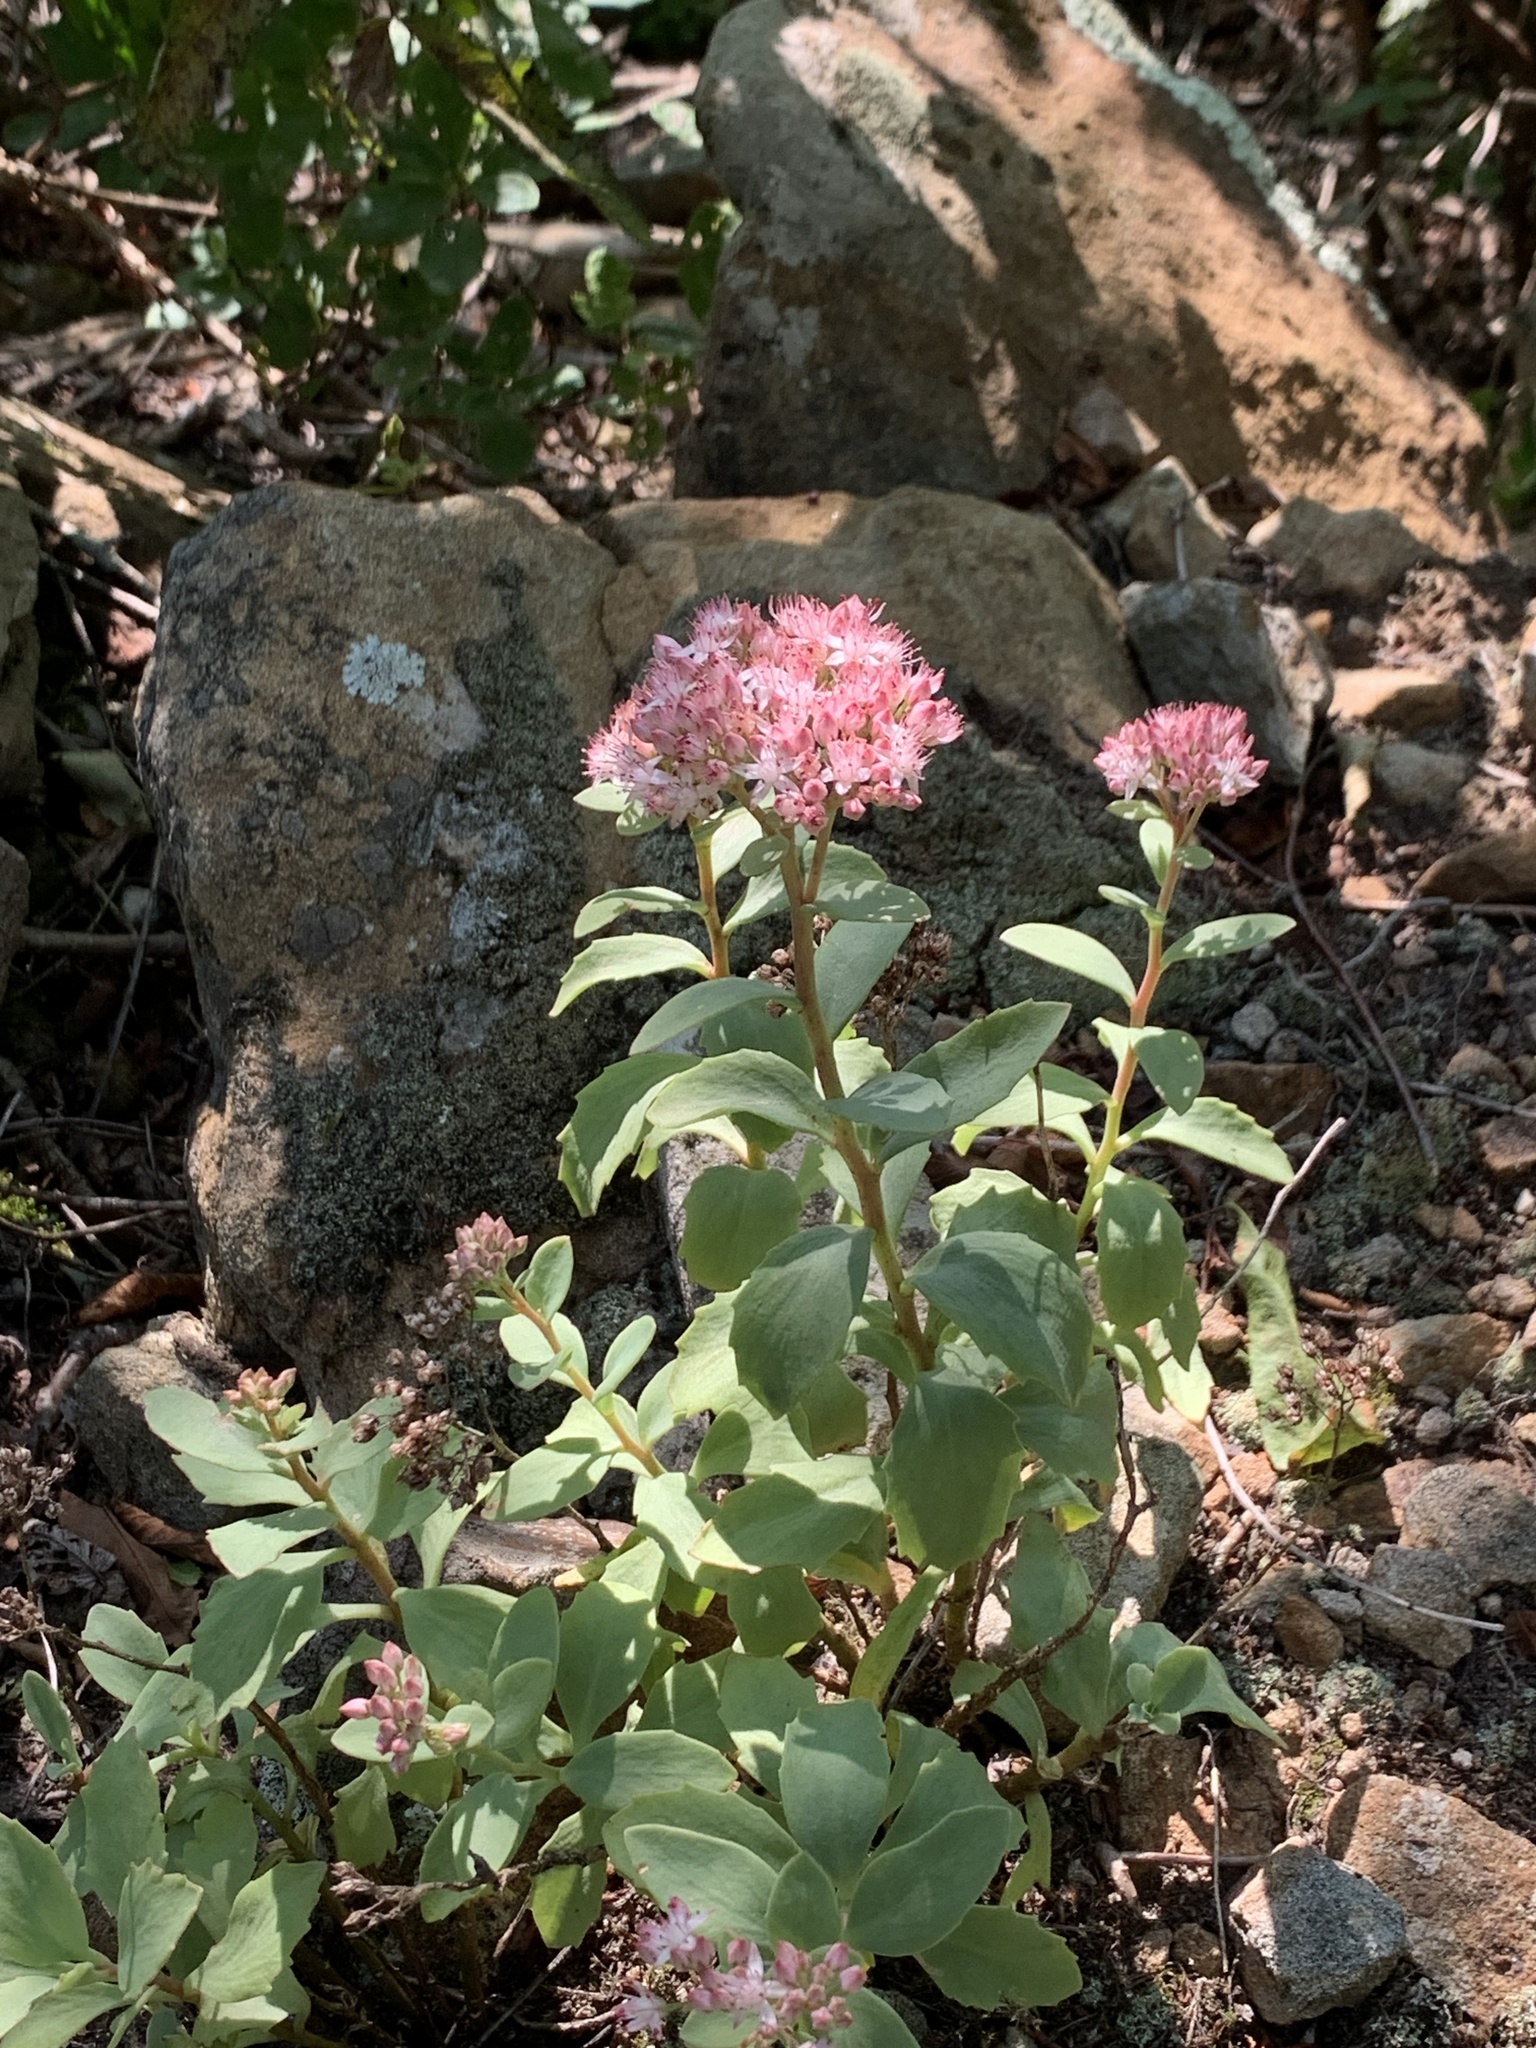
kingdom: Plantae
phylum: Tracheophyta
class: Magnoliopsida
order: Saxifragales
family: Crassulaceae
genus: Hylotelephium
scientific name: Hylotelephium telephioides
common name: Allegheny stonecrop
